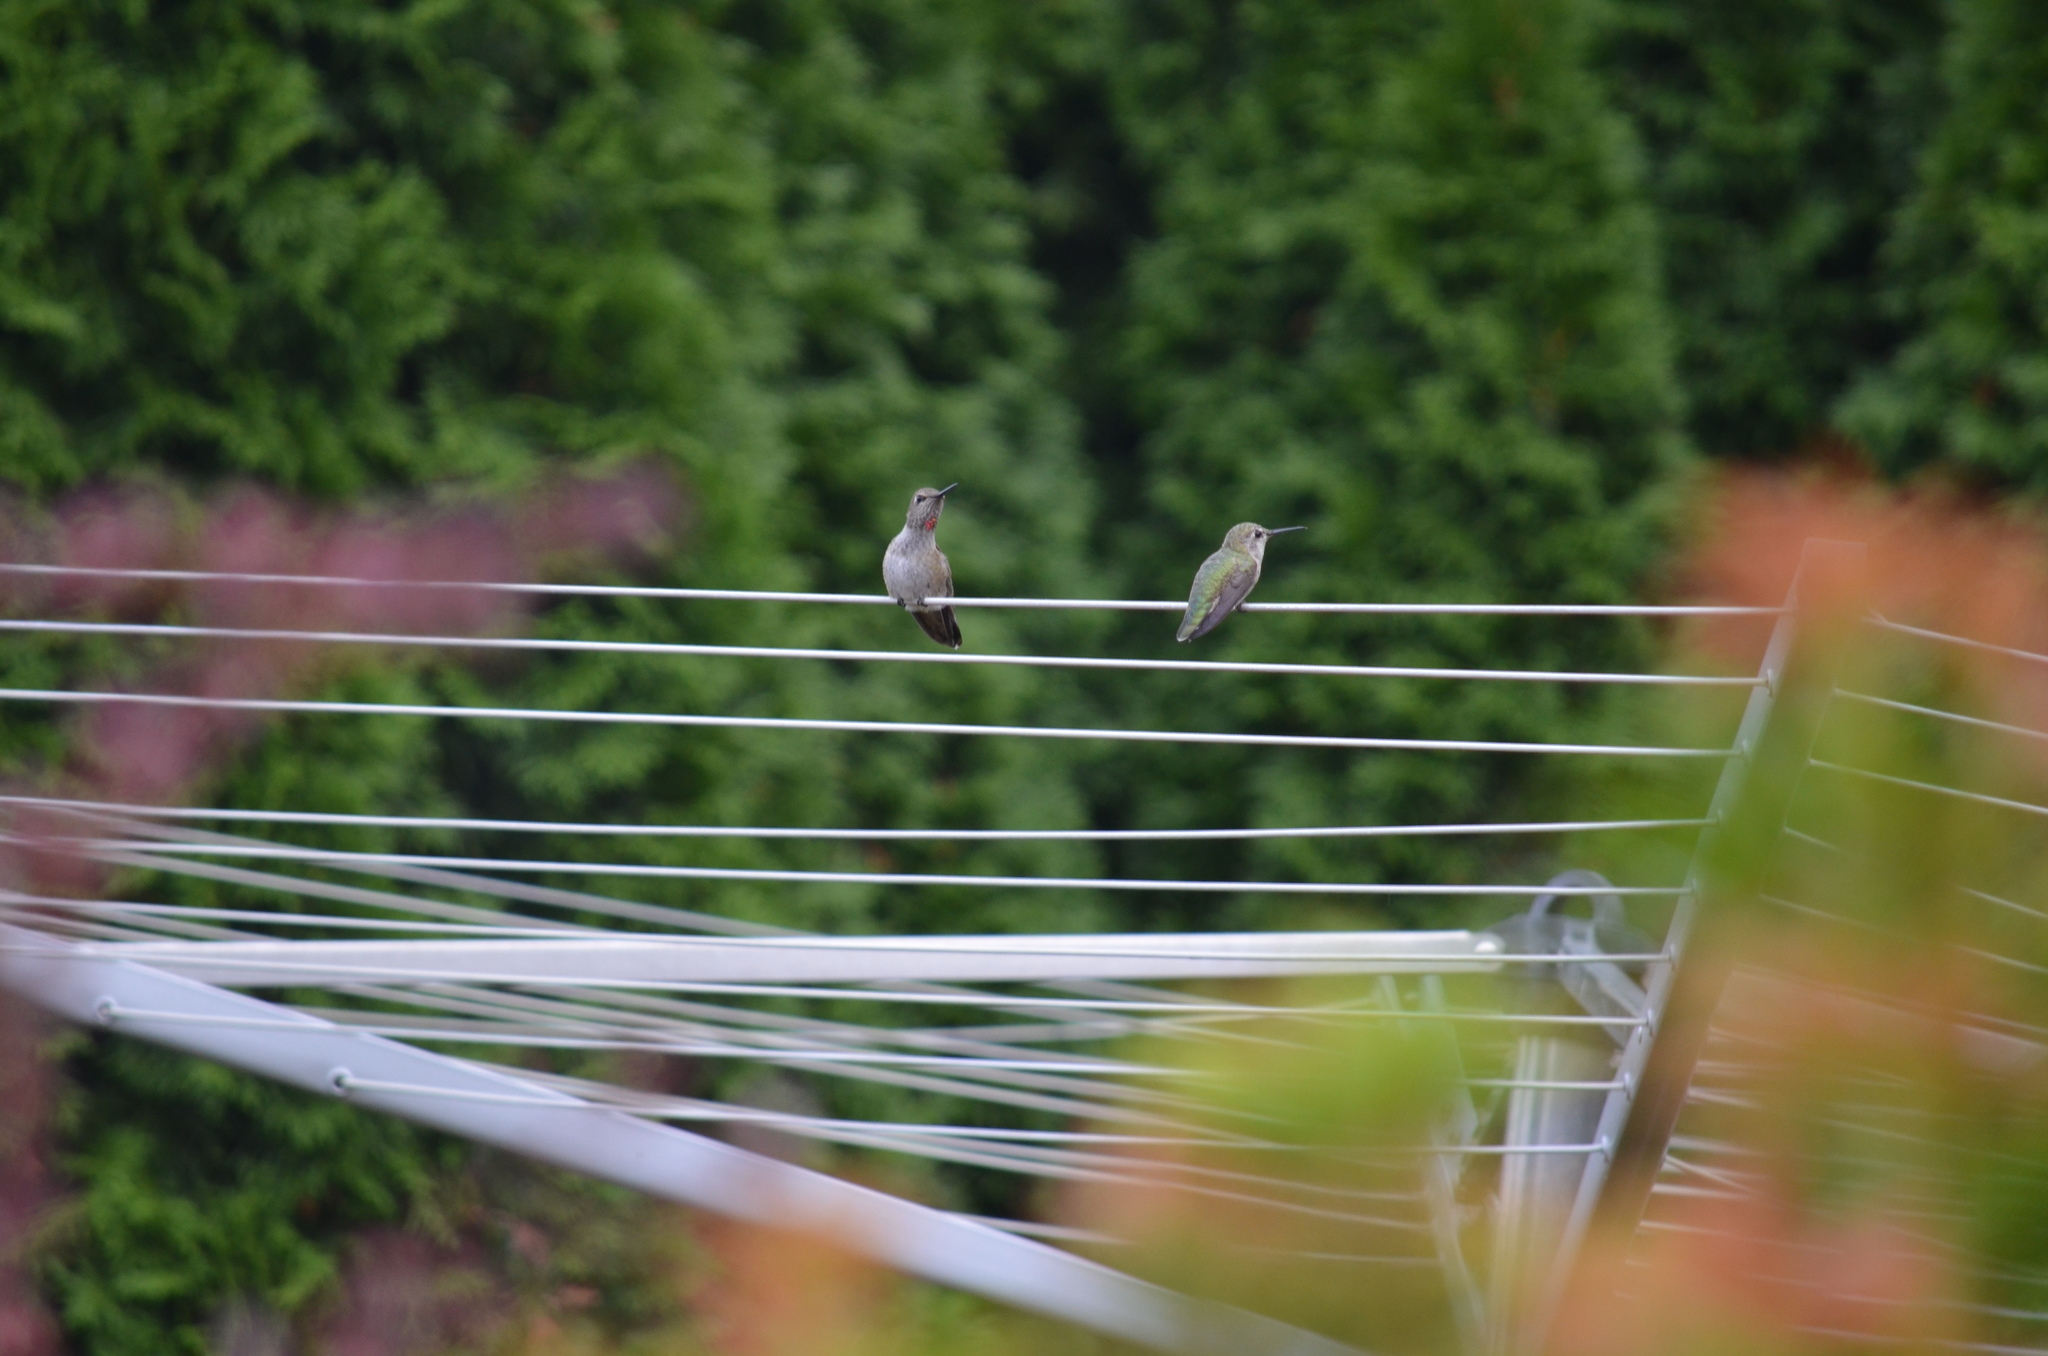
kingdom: Animalia
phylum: Chordata
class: Aves
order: Apodiformes
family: Trochilidae
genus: Calypte
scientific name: Calypte anna
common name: Anna's hummingbird
